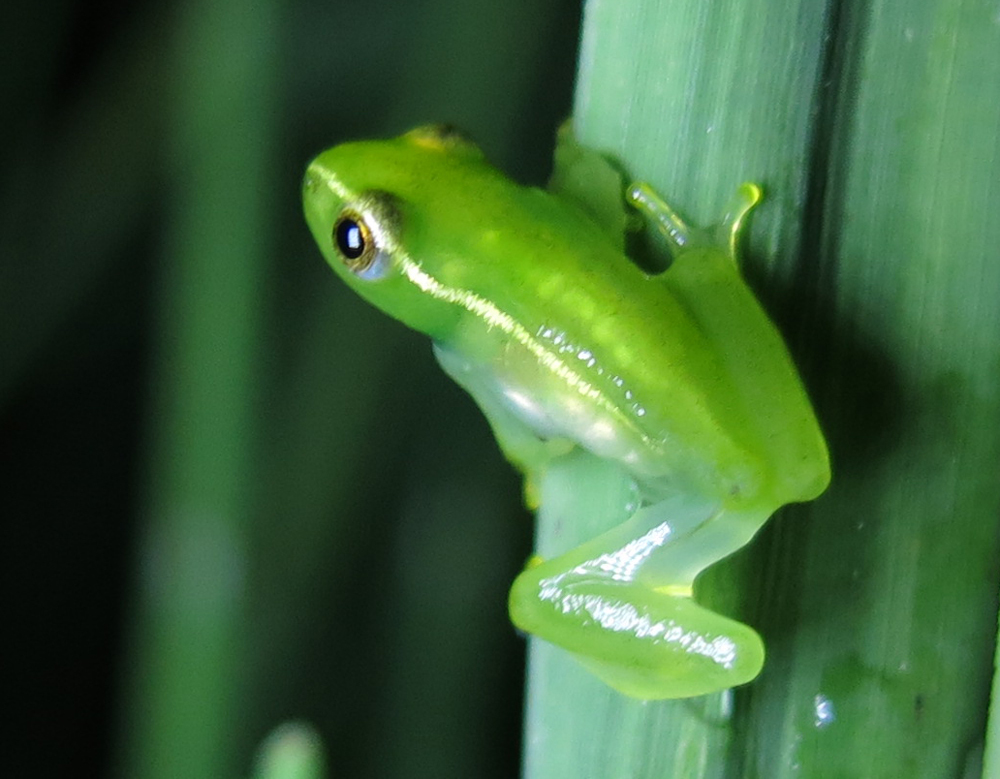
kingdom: Animalia
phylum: Chordata
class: Amphibia
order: Anura
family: Hyperoliidae
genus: Hyperolius
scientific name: Hyperolius pusillus
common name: Water lily reed frog
